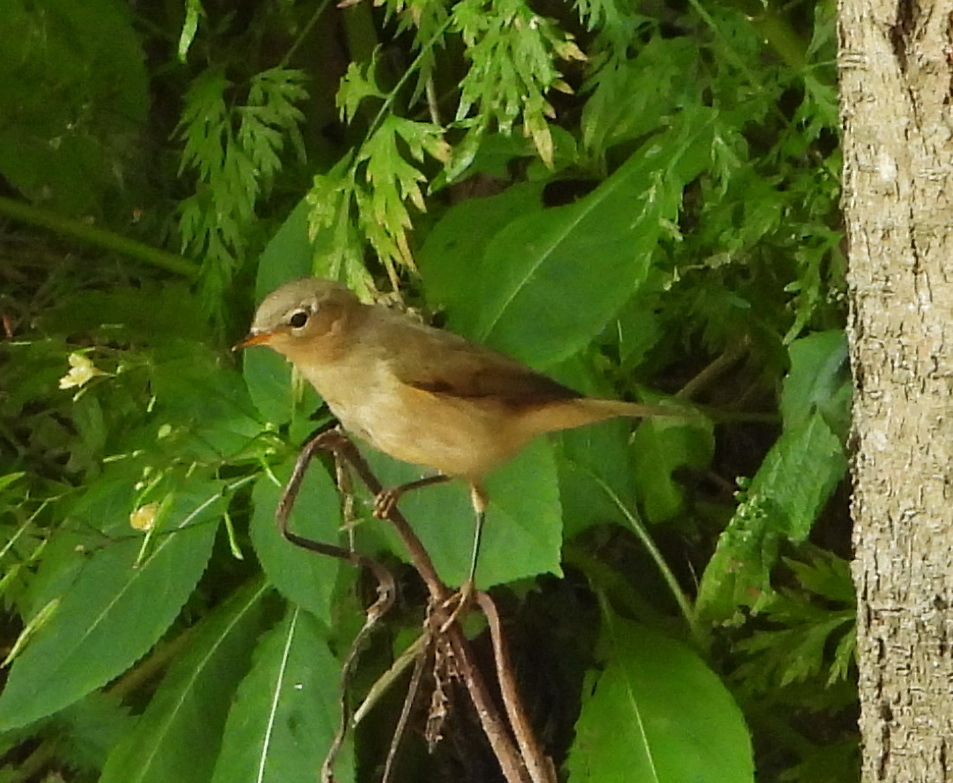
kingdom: Animalia
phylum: Chordata
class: Aves
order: Passeriformes
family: Phylloscopidae
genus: Phylloscopus
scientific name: Phylloscopus collybita
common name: Common chiffchaff
